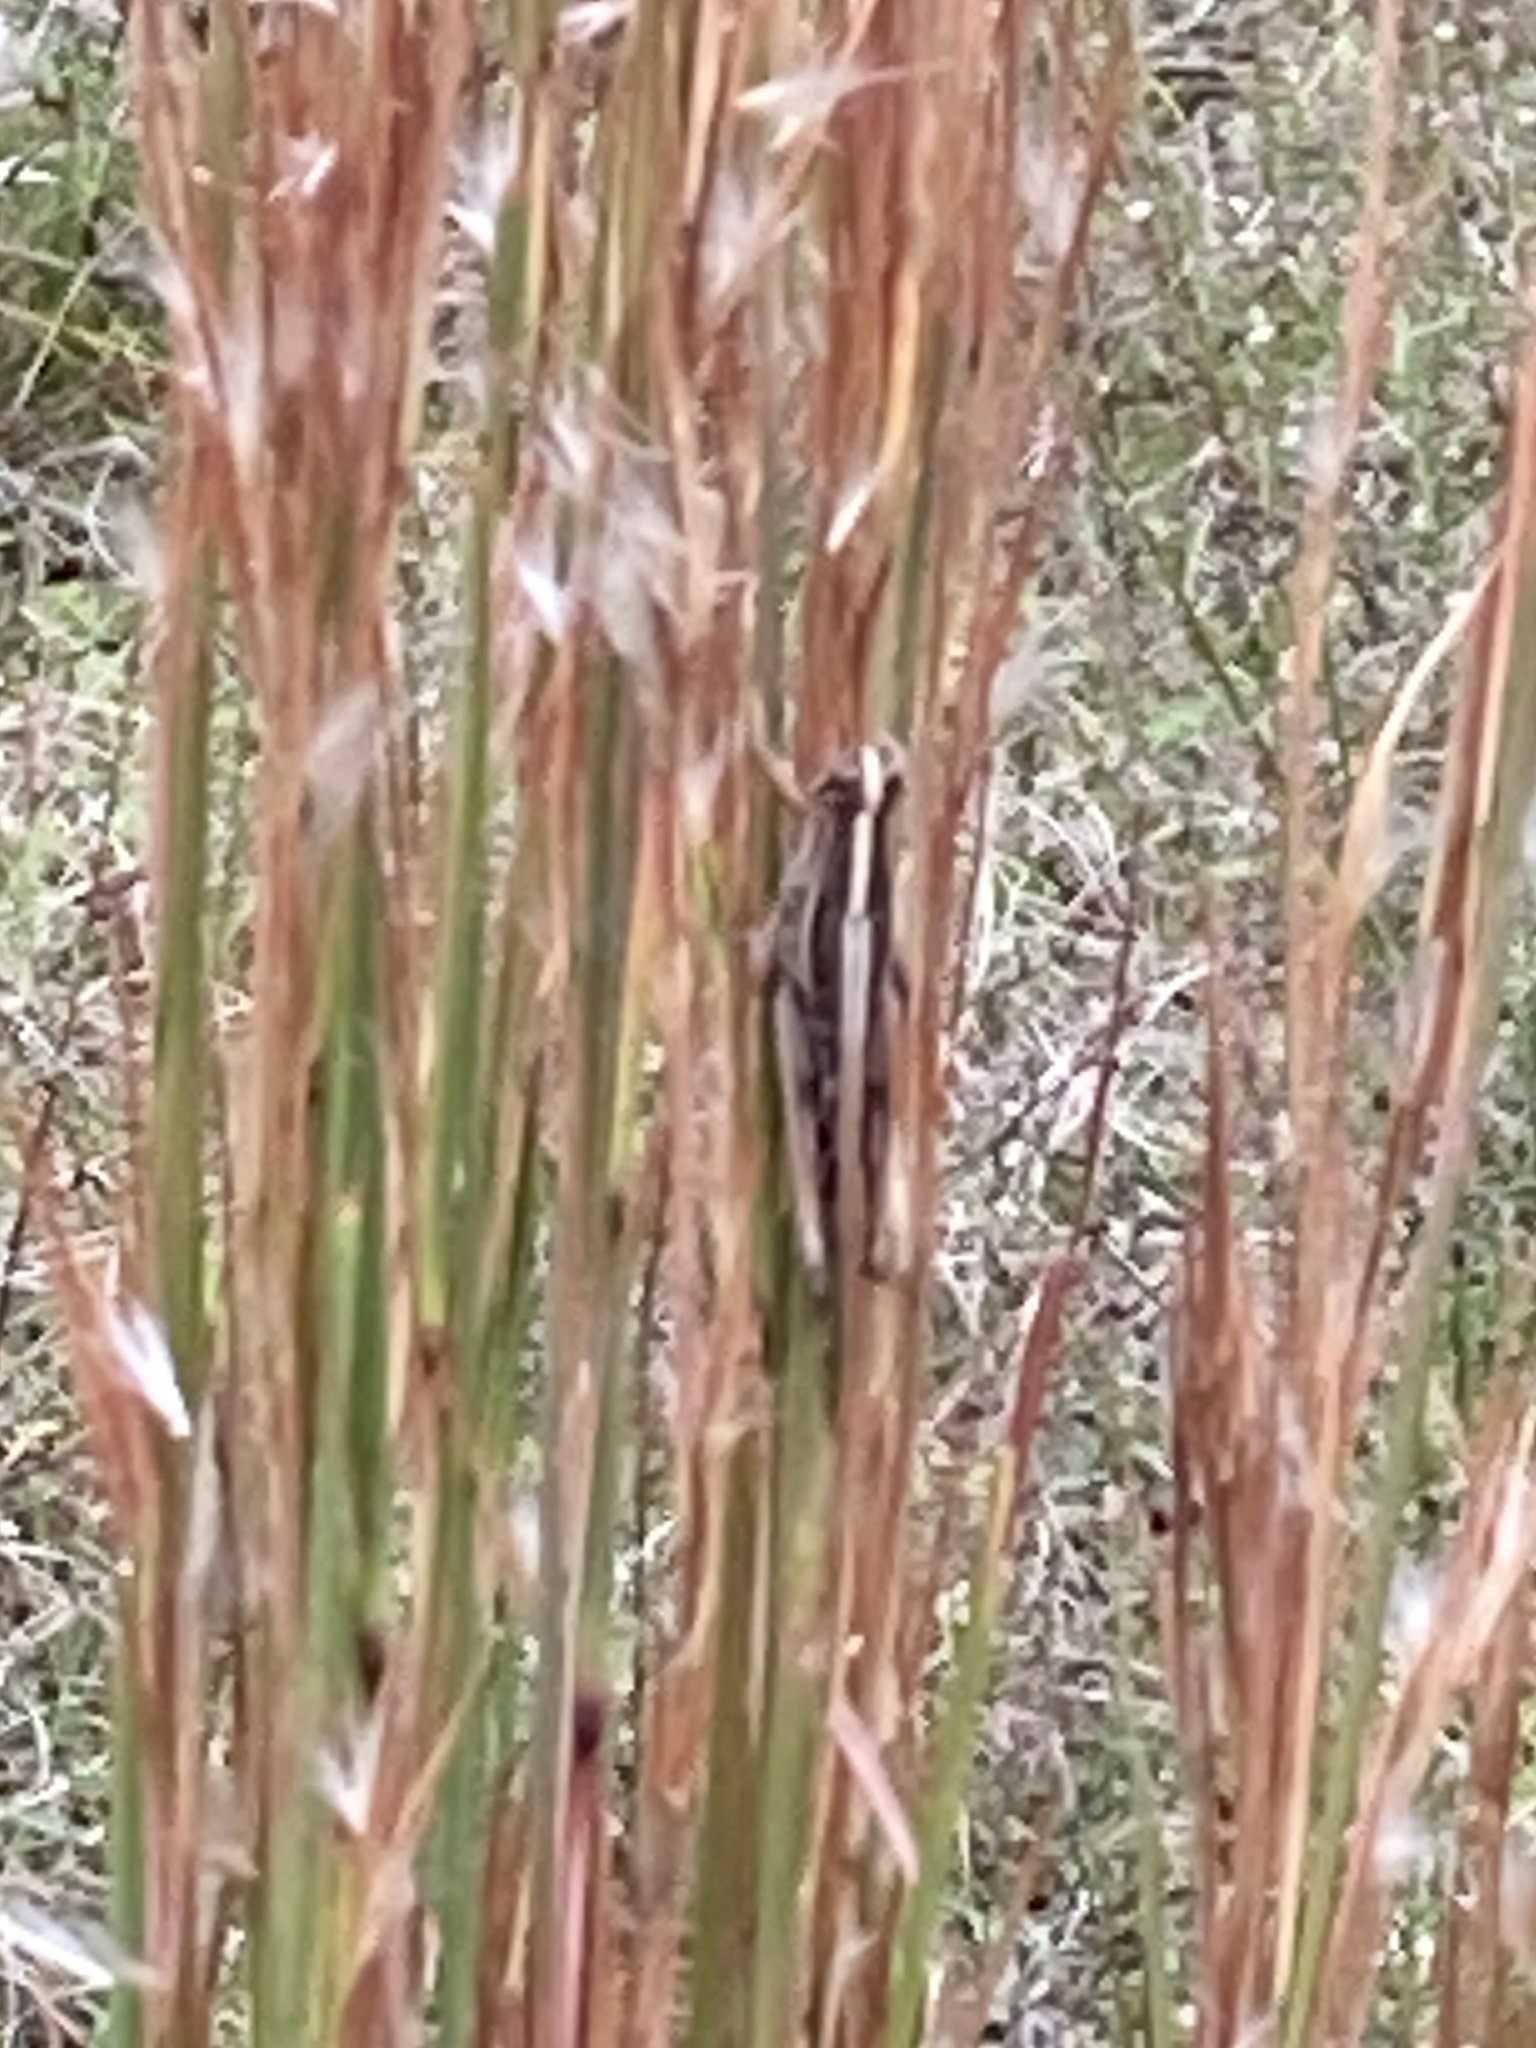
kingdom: Animalia
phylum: Arthropoda
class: Insecta
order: Orthoptera
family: Acrididae
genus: Schistocerca
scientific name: Schistocerca americana
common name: American bird locust
